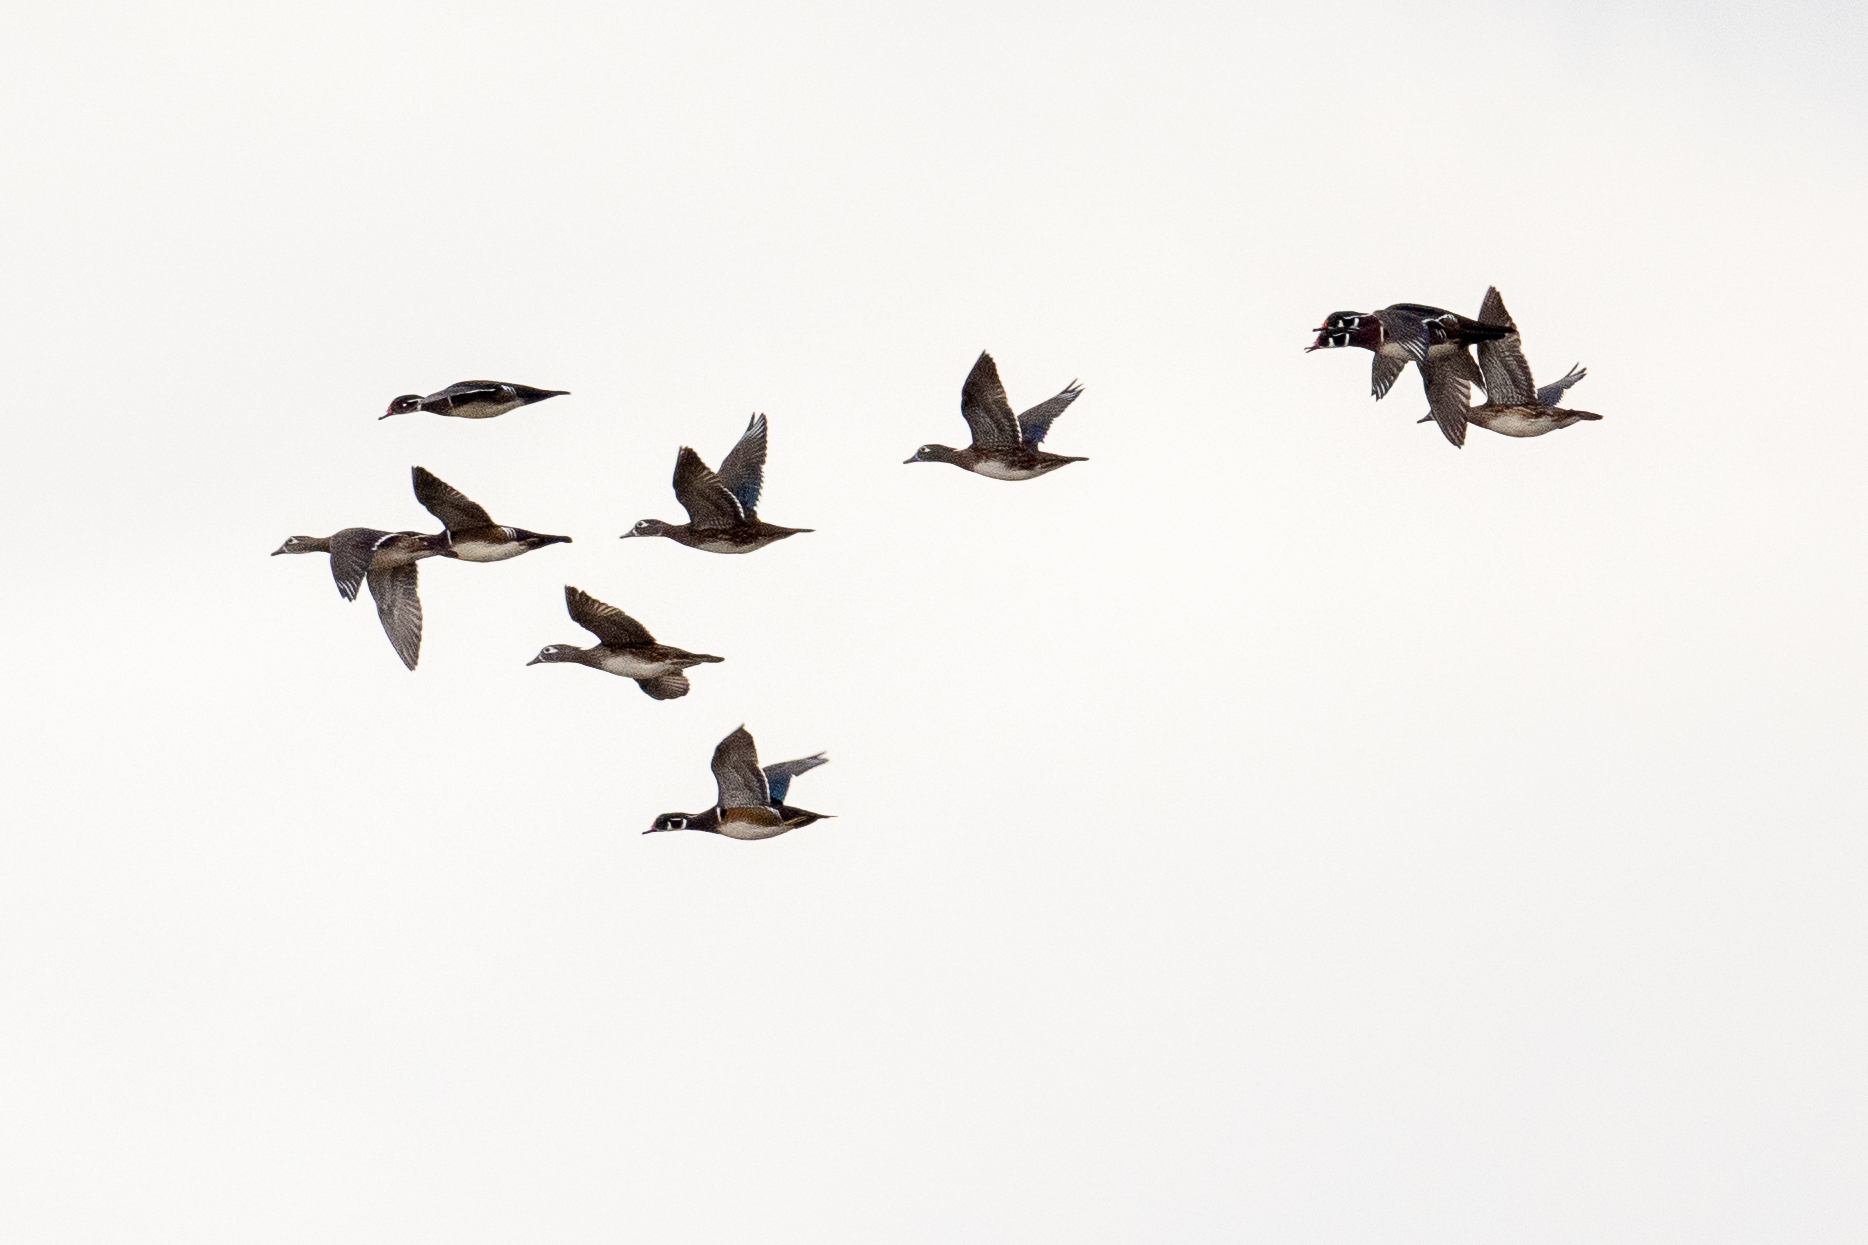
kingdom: Animalia
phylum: Chordata
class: Aves
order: Anseriformes
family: Anatidae
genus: Aix
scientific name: Aix sponsa
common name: Wood duck
